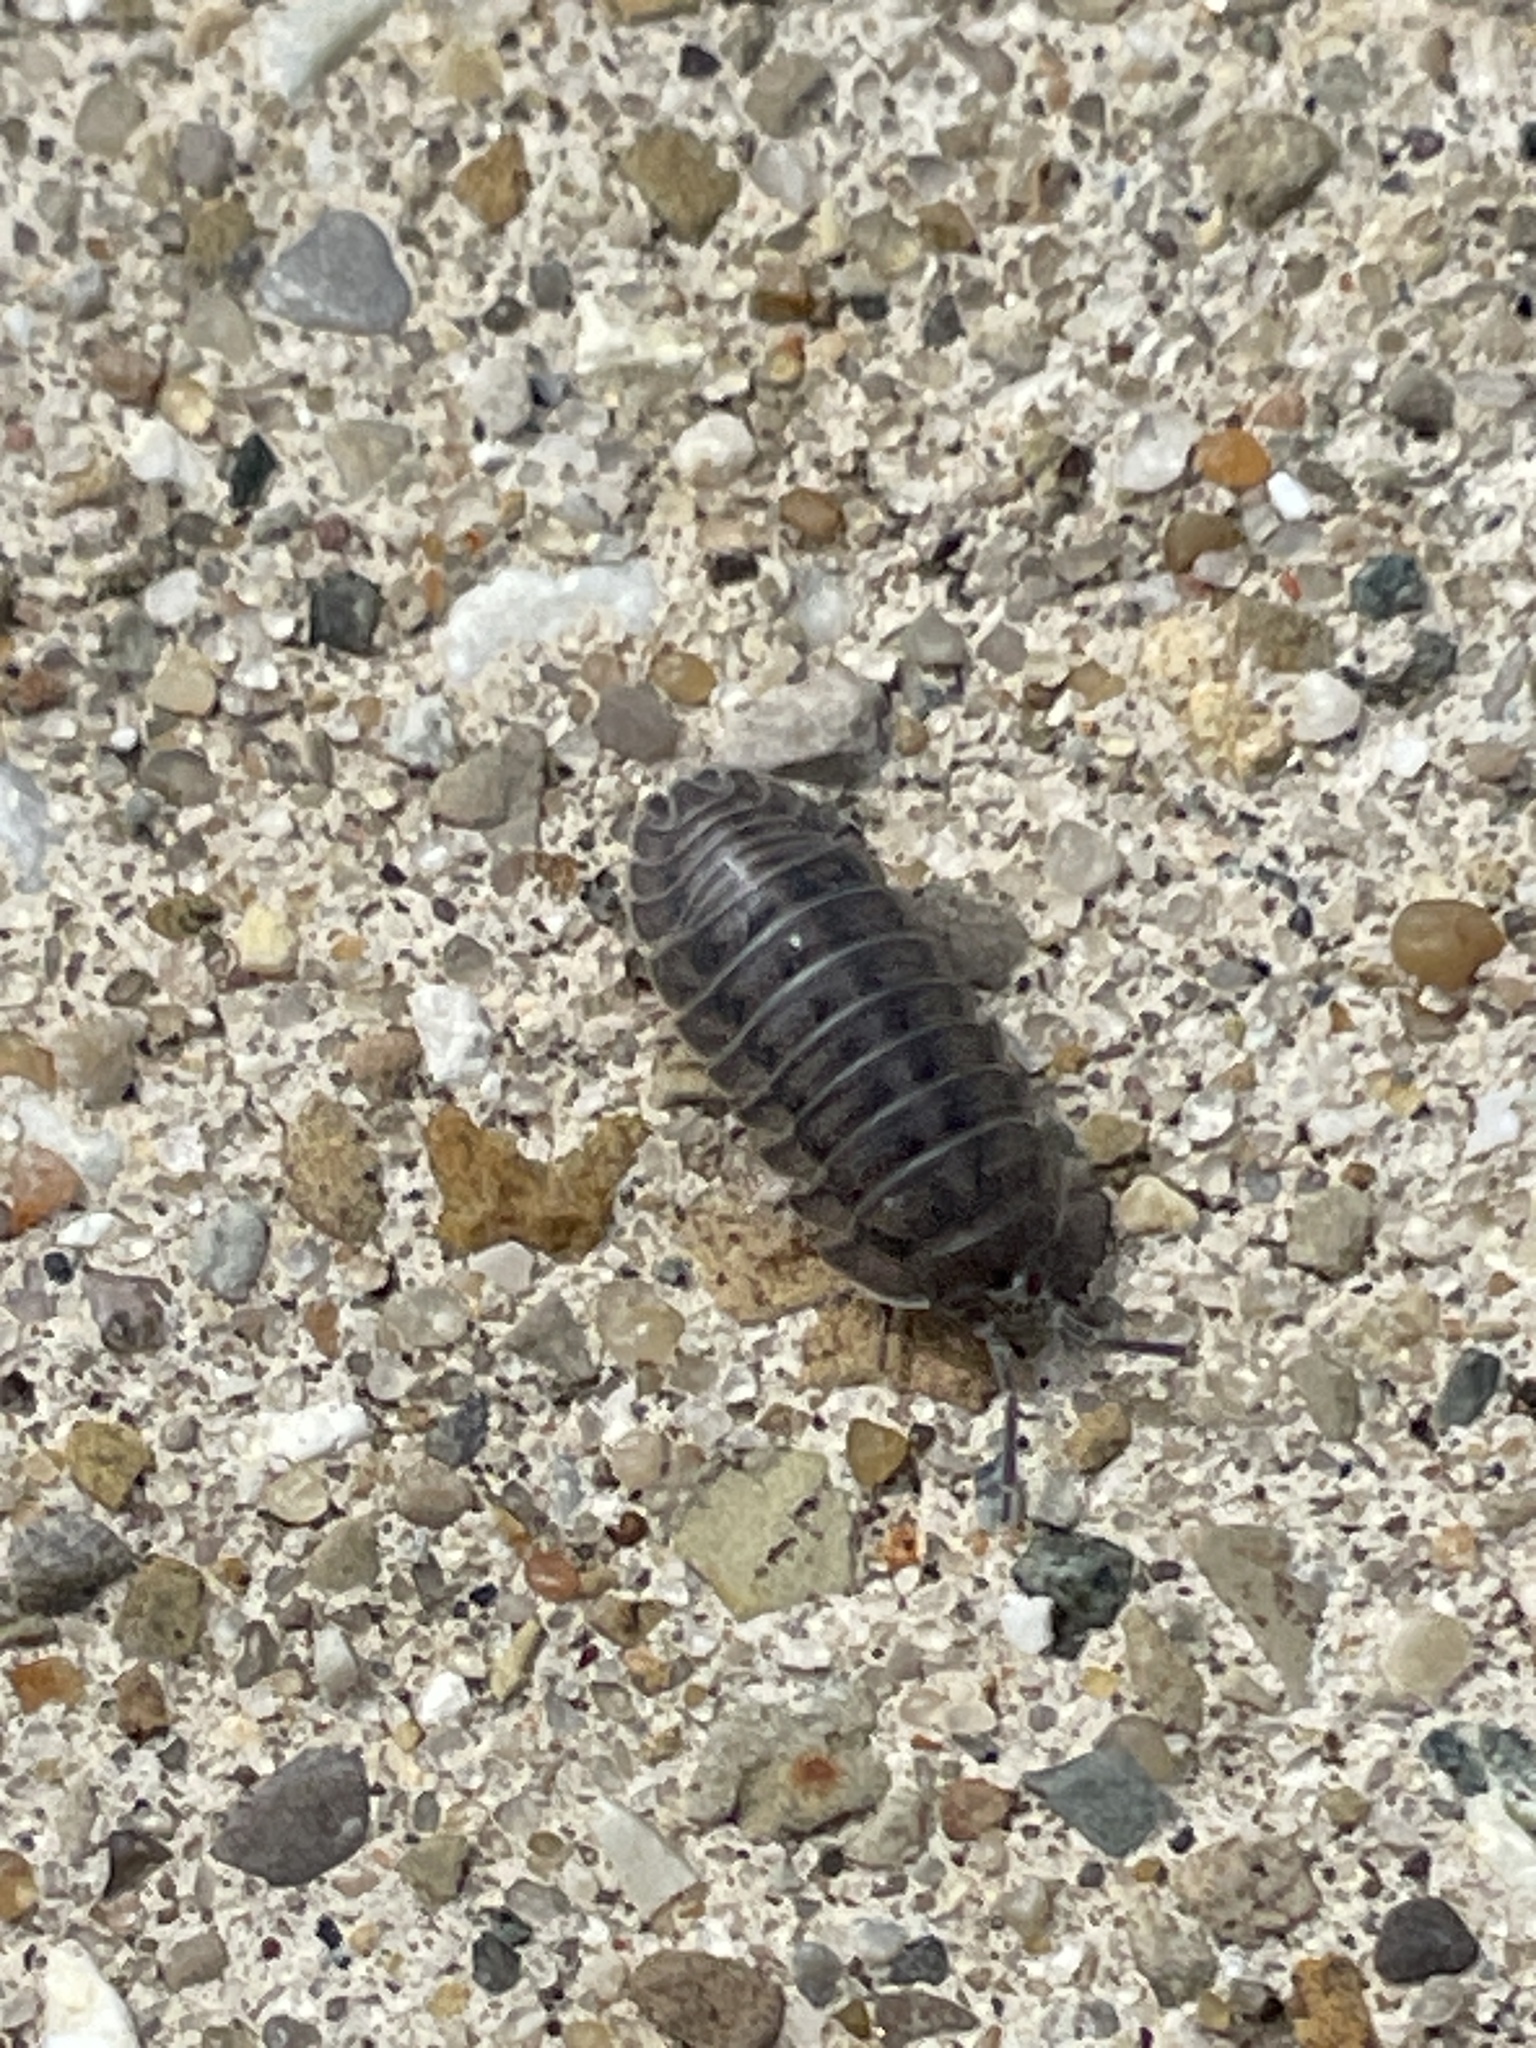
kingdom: Animalia
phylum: Arthropoda
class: Malacostraca
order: Isopoda
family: Armadillidiidae
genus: Armadillidium
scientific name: Armadillidium nasatum
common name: Isopod
